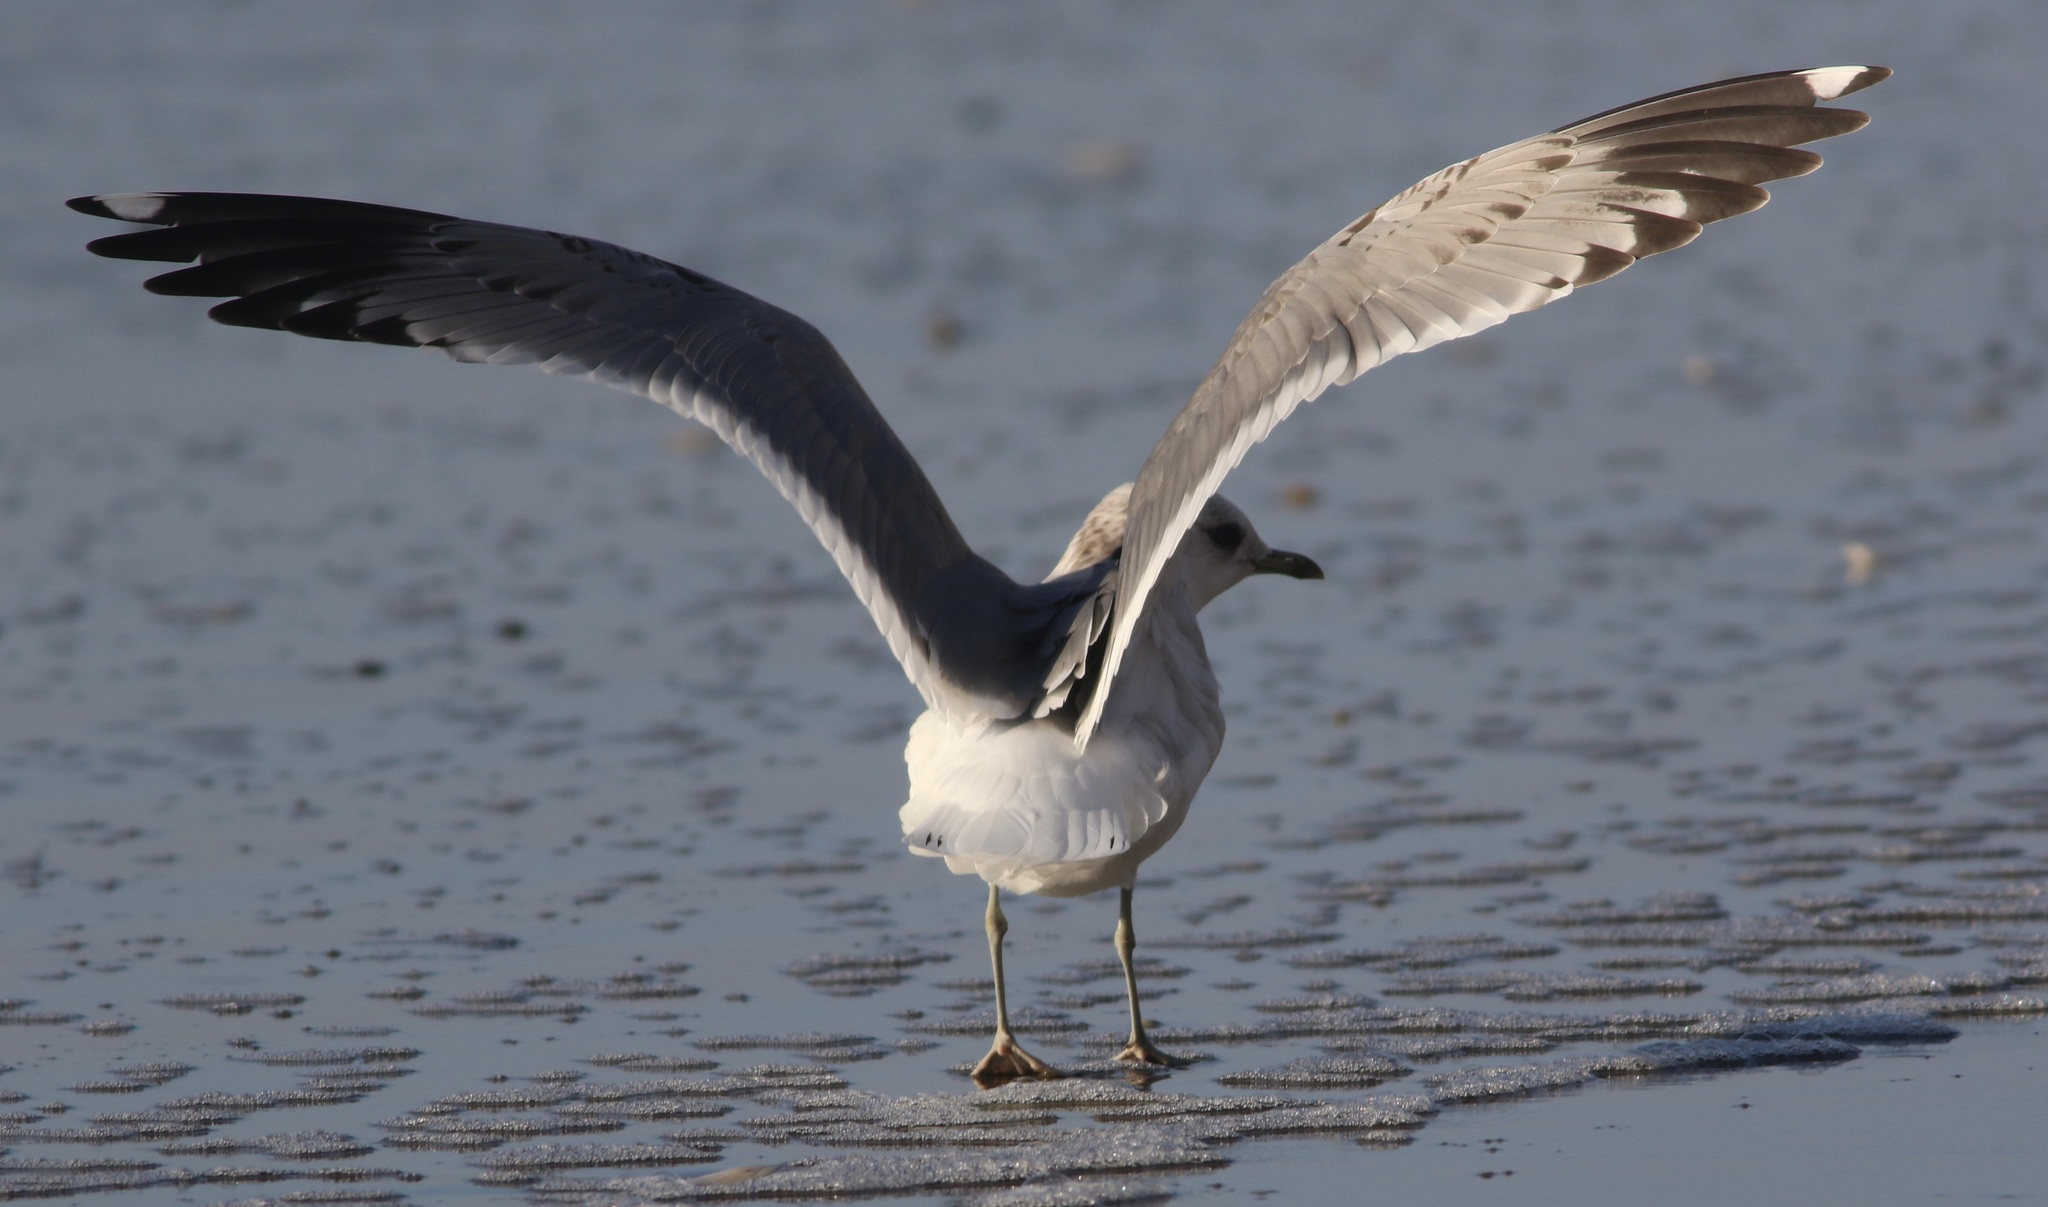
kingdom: Animalia
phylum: Chordata
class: Aves
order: Charadriiformes
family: Laridae
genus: Larus
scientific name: Larus brachyrhynchus
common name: Short-billed gull
